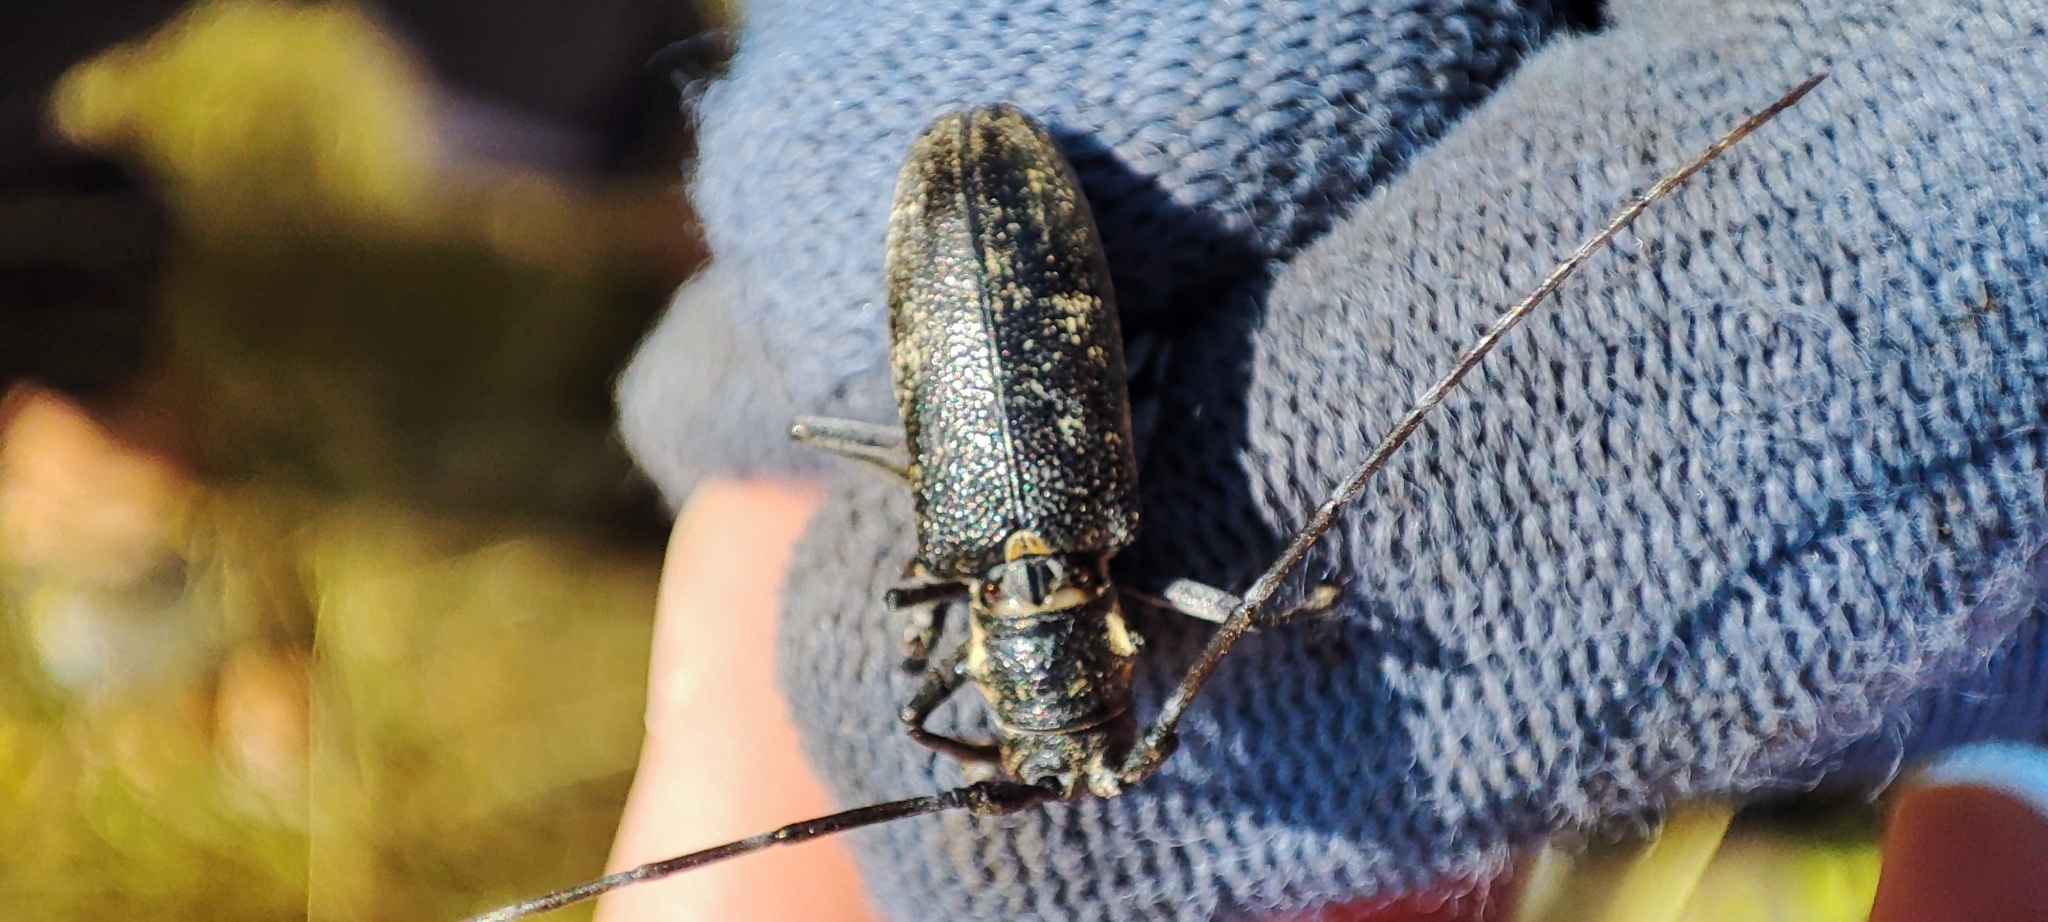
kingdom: Animalia
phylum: Arthropoda
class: Insecta
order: Coleoptera
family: Cerambycidae
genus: Monochamus
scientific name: Monochamus galloprovincialis
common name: Pine sawyer
